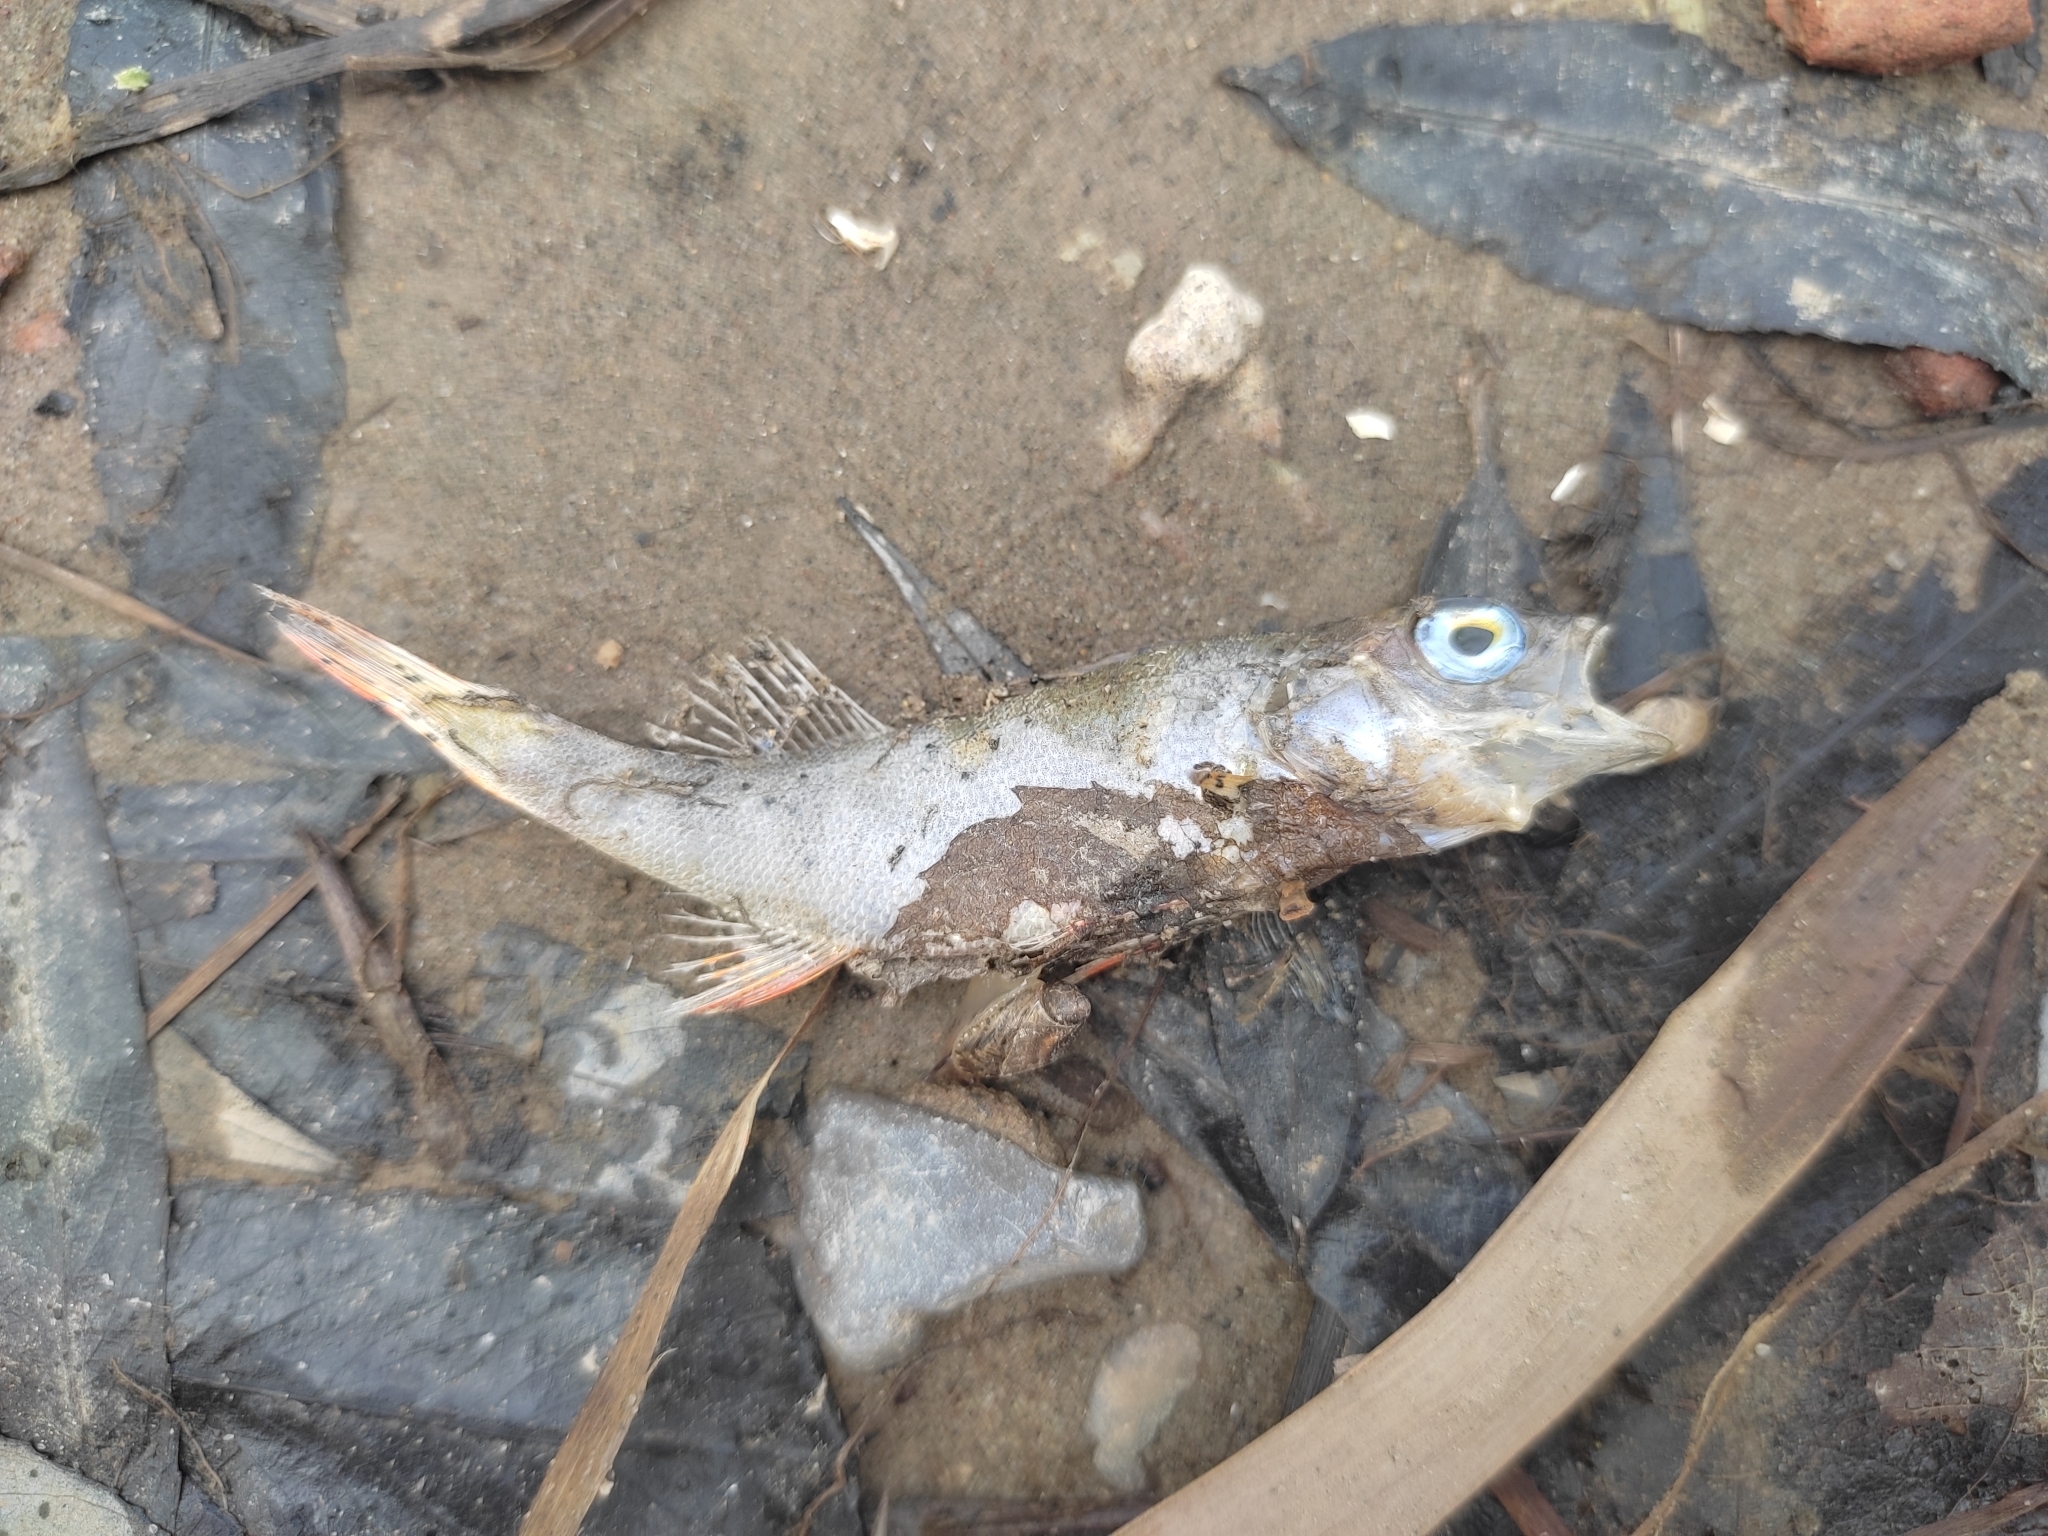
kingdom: Animalia
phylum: Chordata
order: Perciformes
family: Percidae
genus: Perca
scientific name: Perca fluviatilis
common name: Perch
